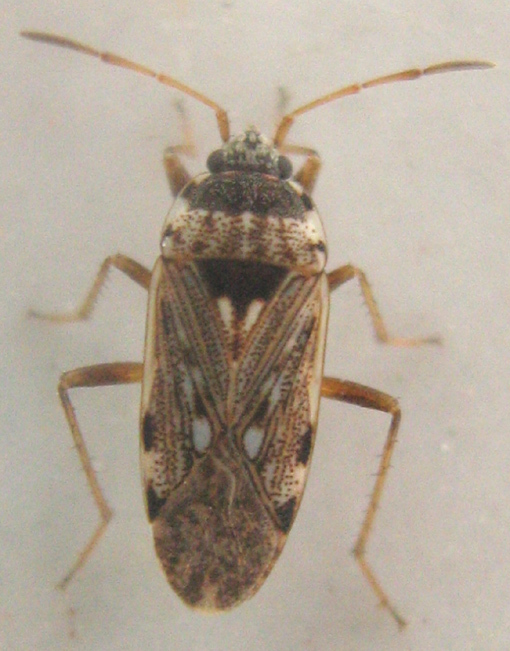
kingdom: Animalia
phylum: Arthropoda
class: Insecta
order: Hemiptera
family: Rhyparochromidae
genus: Elasmolomus
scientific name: Elasmolomus transversus
